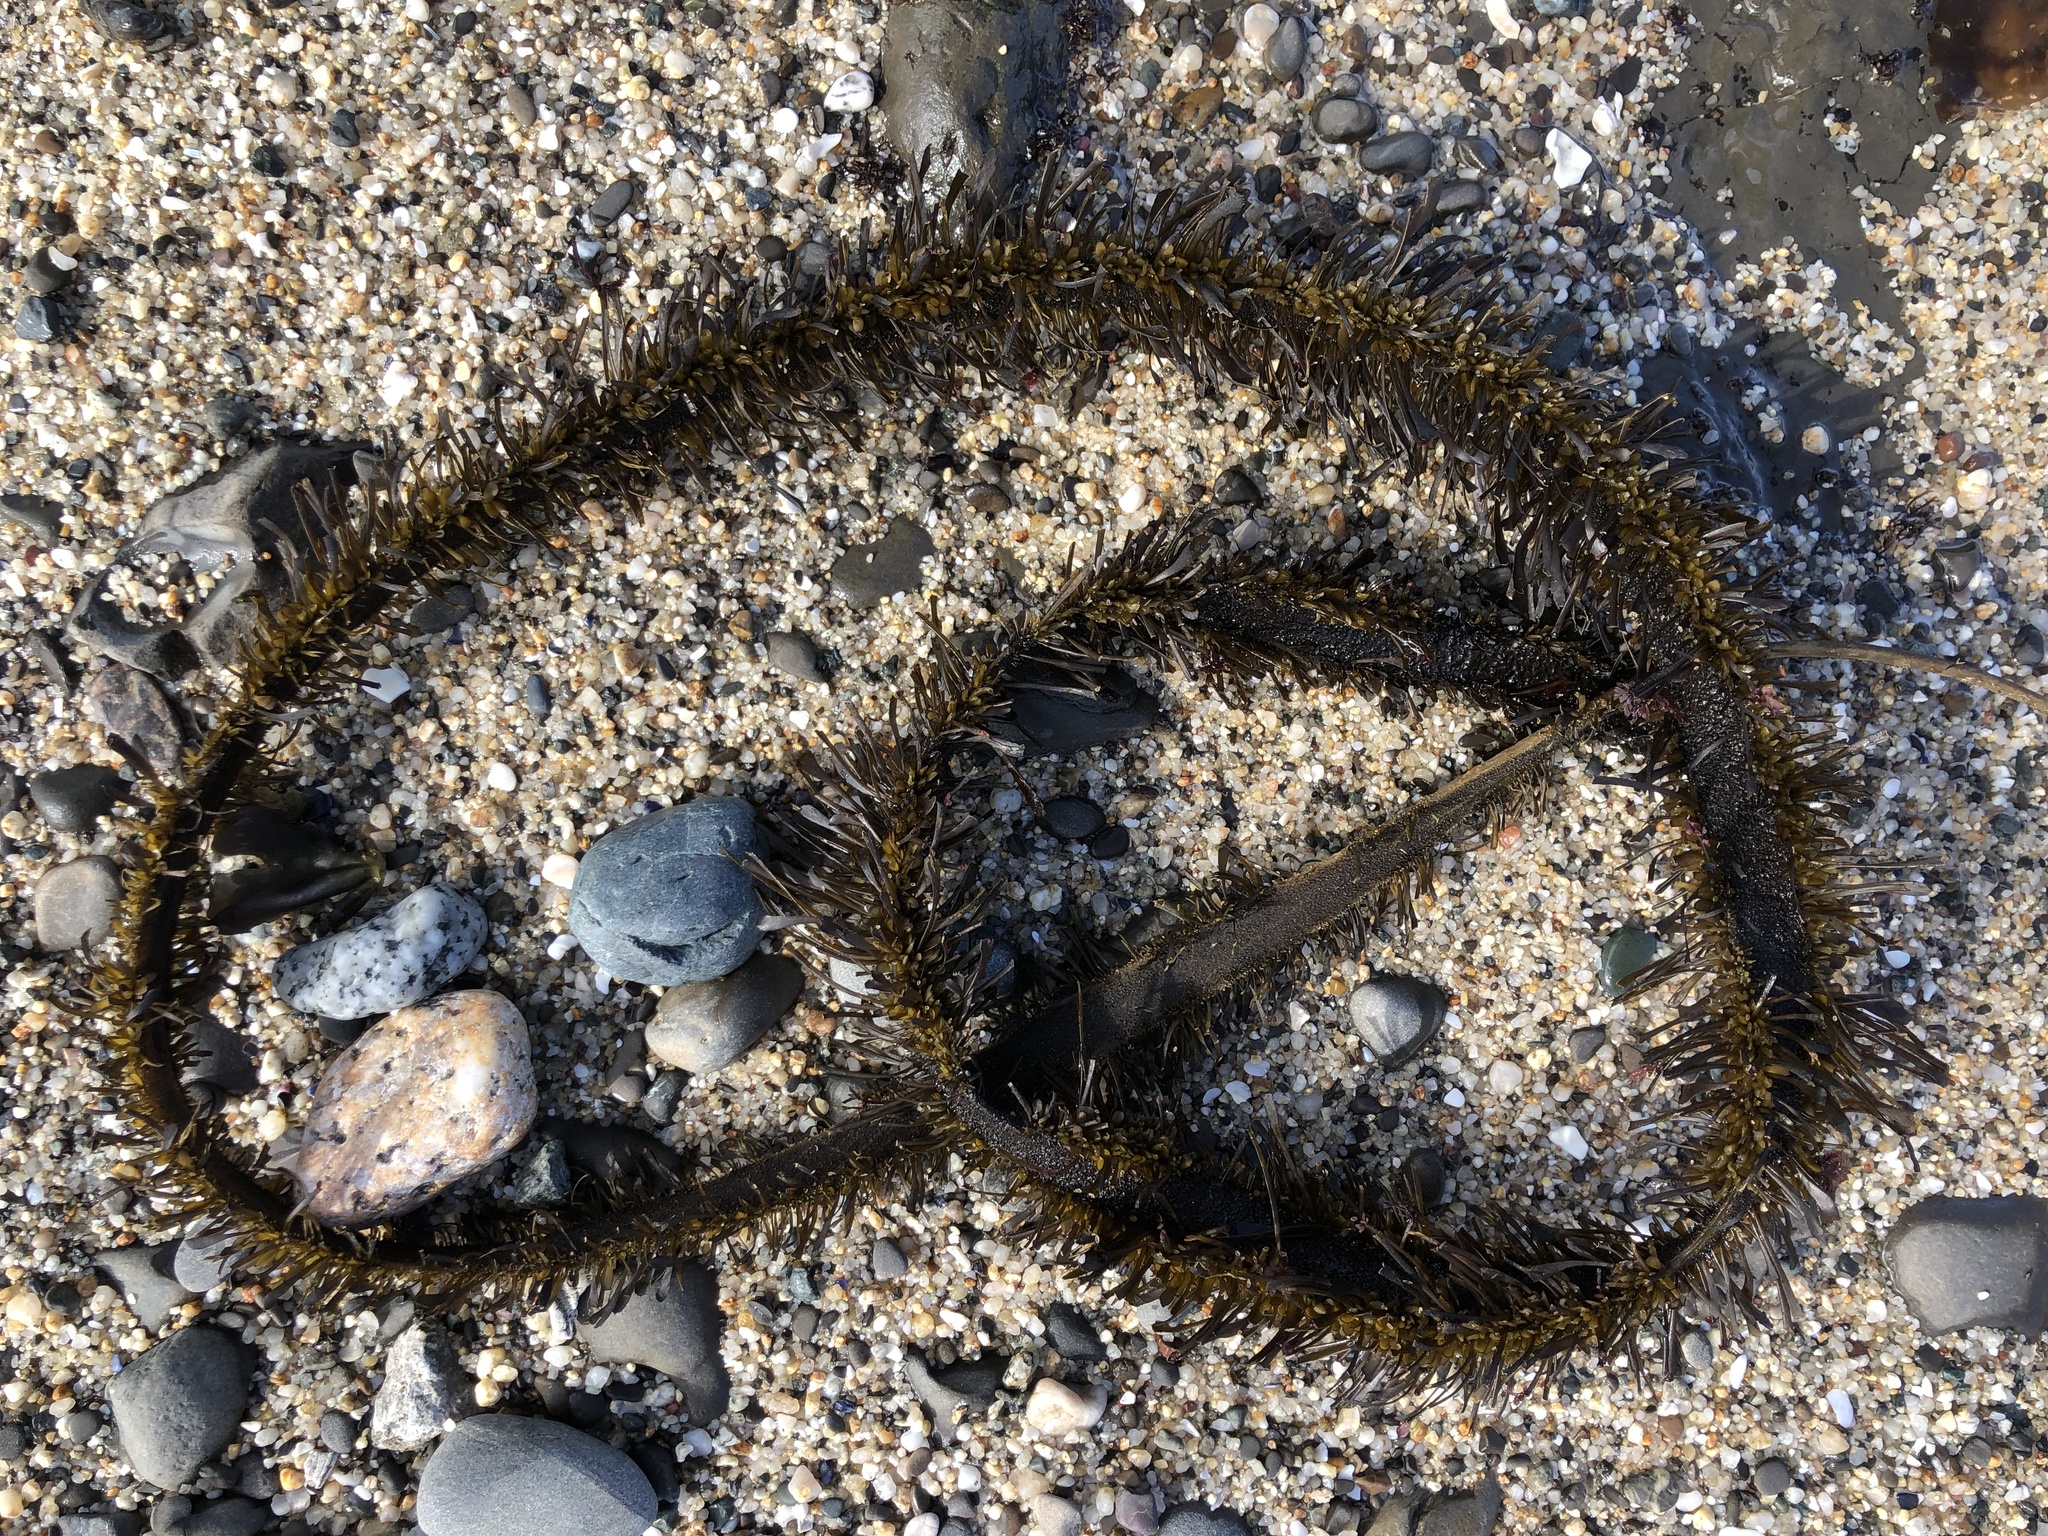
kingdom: Chromista
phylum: Ochrophyta
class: Phaeophyceae
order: Laminariales
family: Lessoniaceae
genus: Egregia
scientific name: Egregia menziesii
